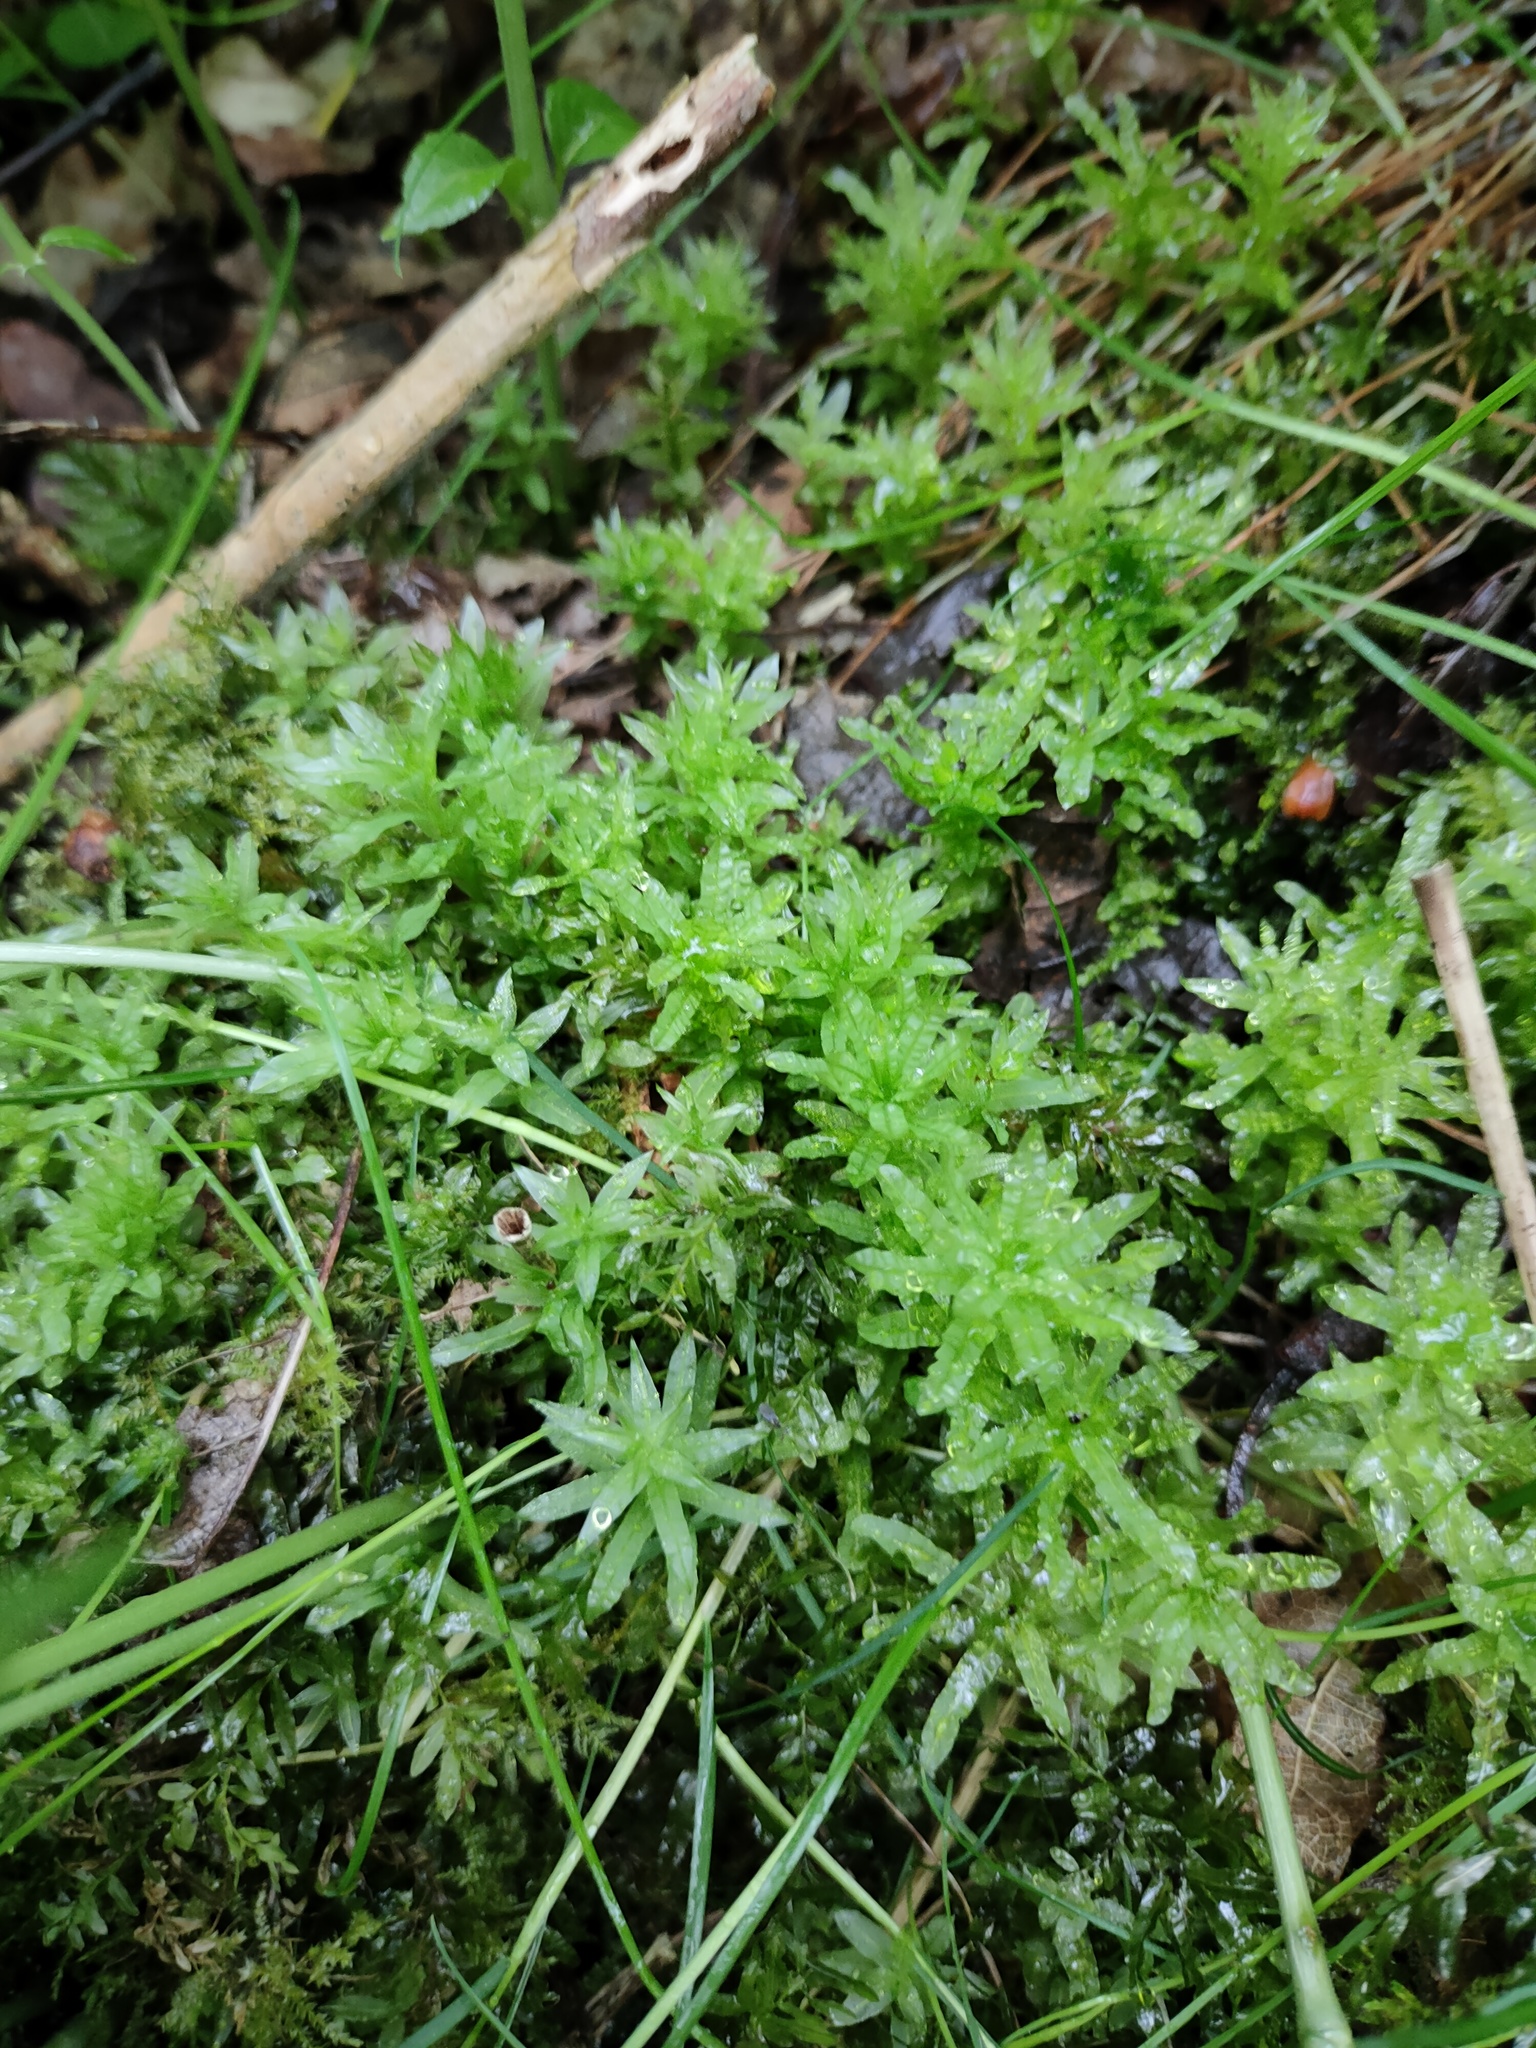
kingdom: Plantae
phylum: Bryophyta
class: Bryopsida
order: Bryales
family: Mniaceae
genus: Plagiomnium
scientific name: Plagiomnium undulatum
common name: Hart's-tongue thyme-moss
